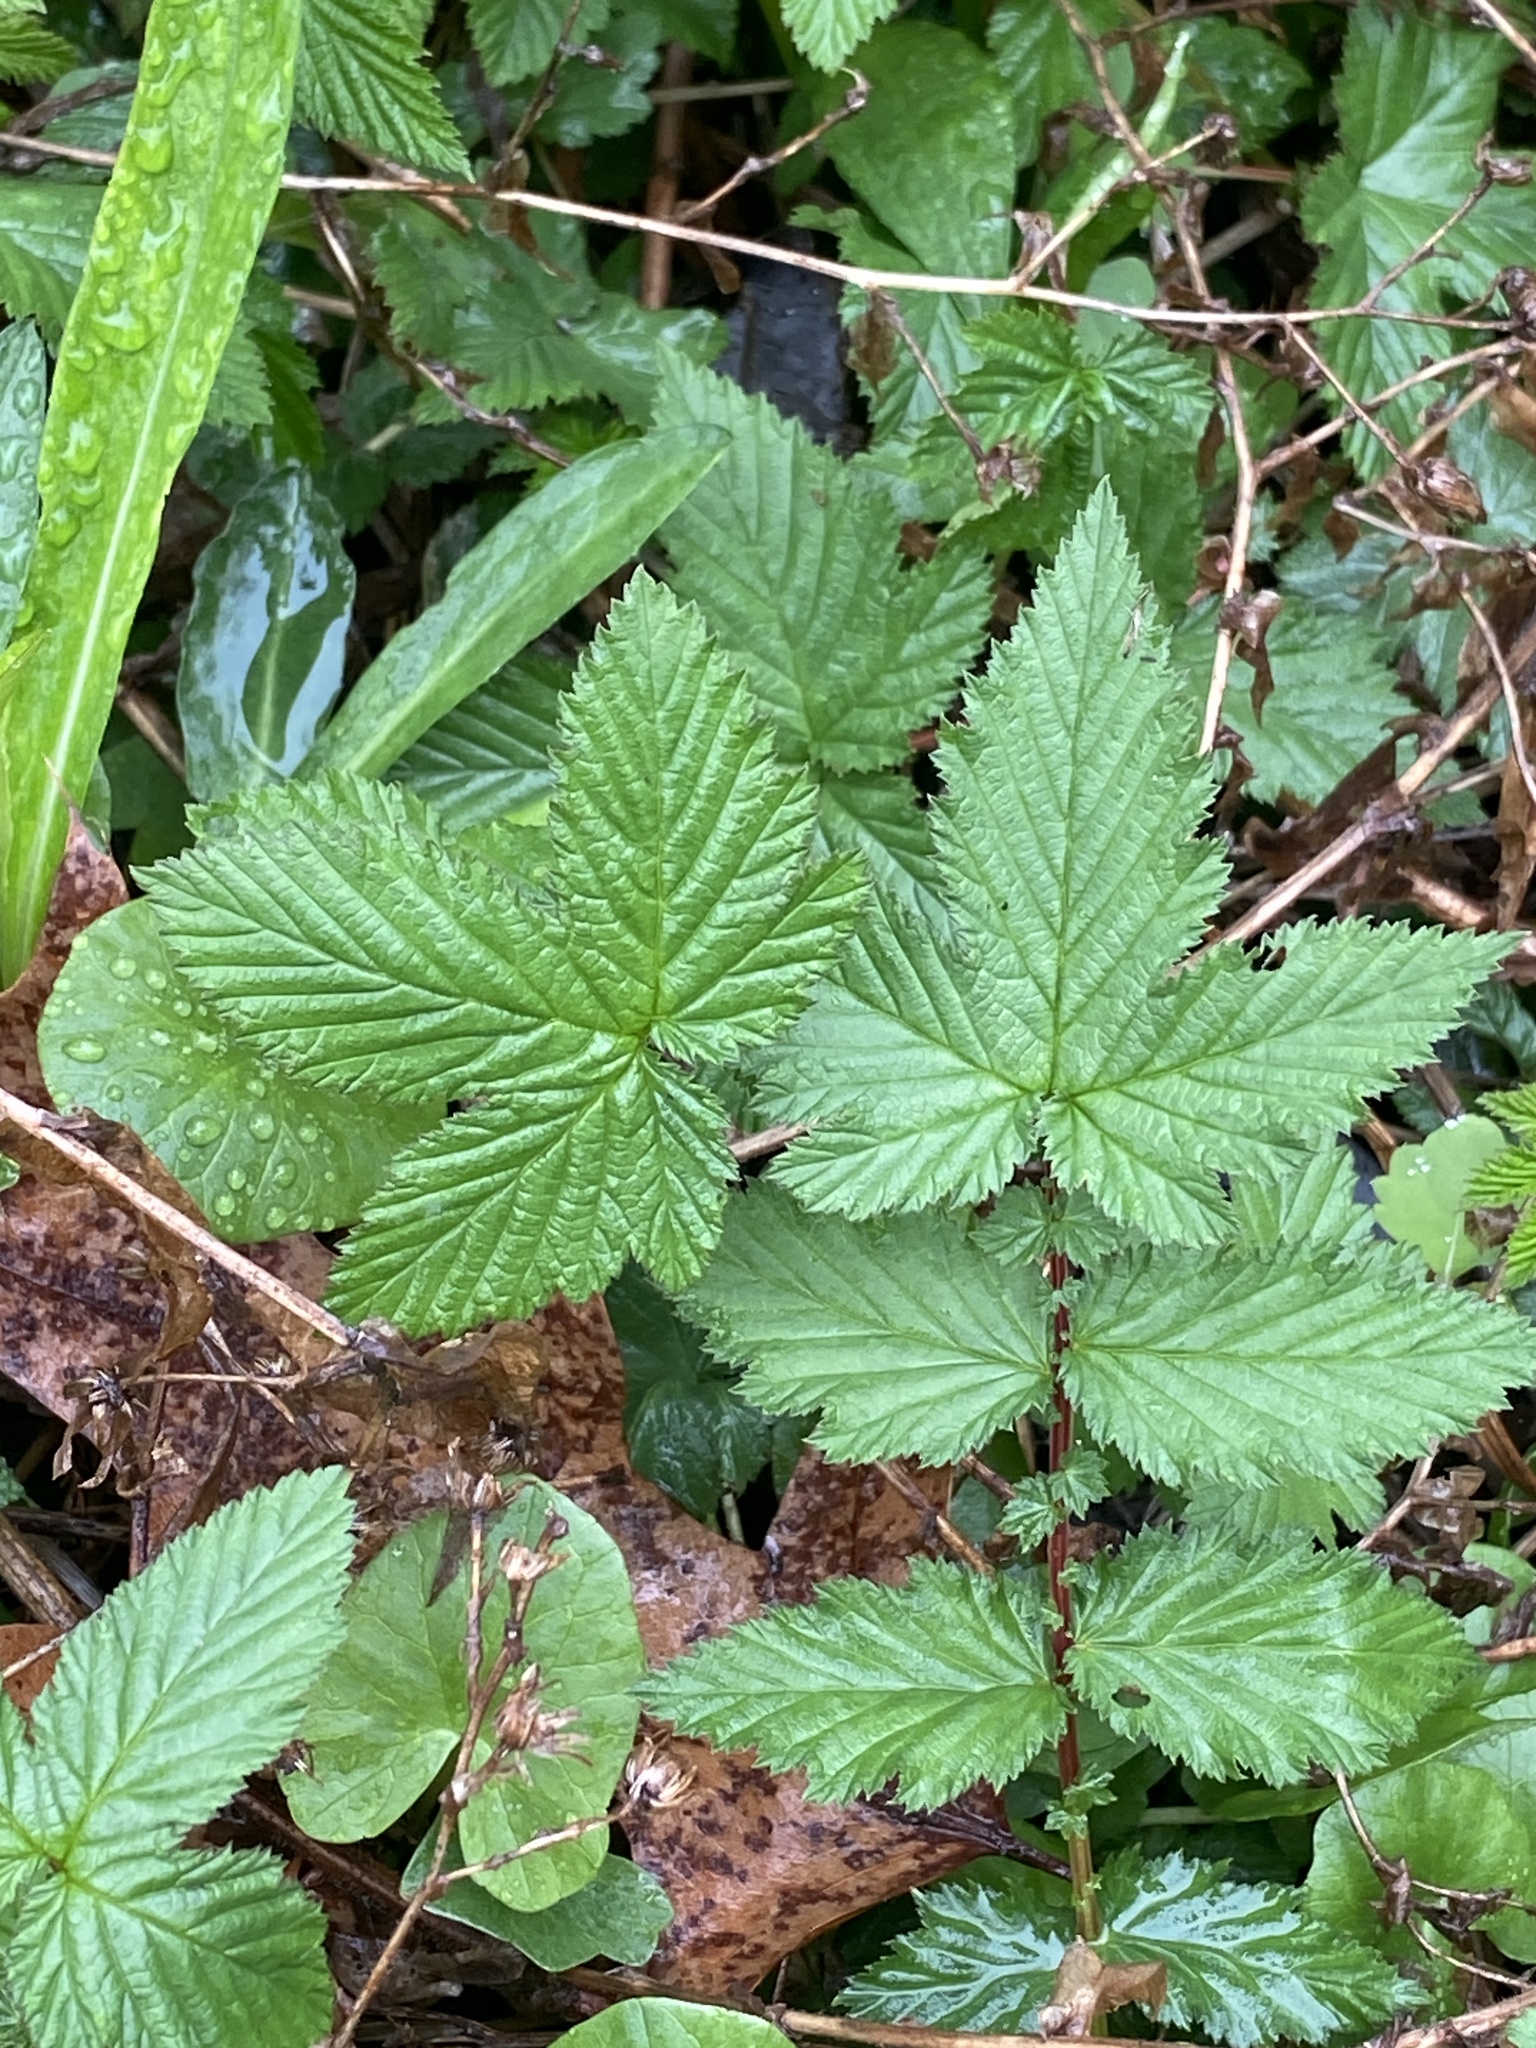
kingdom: Plantae
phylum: Tracheophyta
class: Magnoliopsida
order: Rosales
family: Rosaceae
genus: Filipendula
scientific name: Filipendula ulmaria
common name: Meadowsweet
